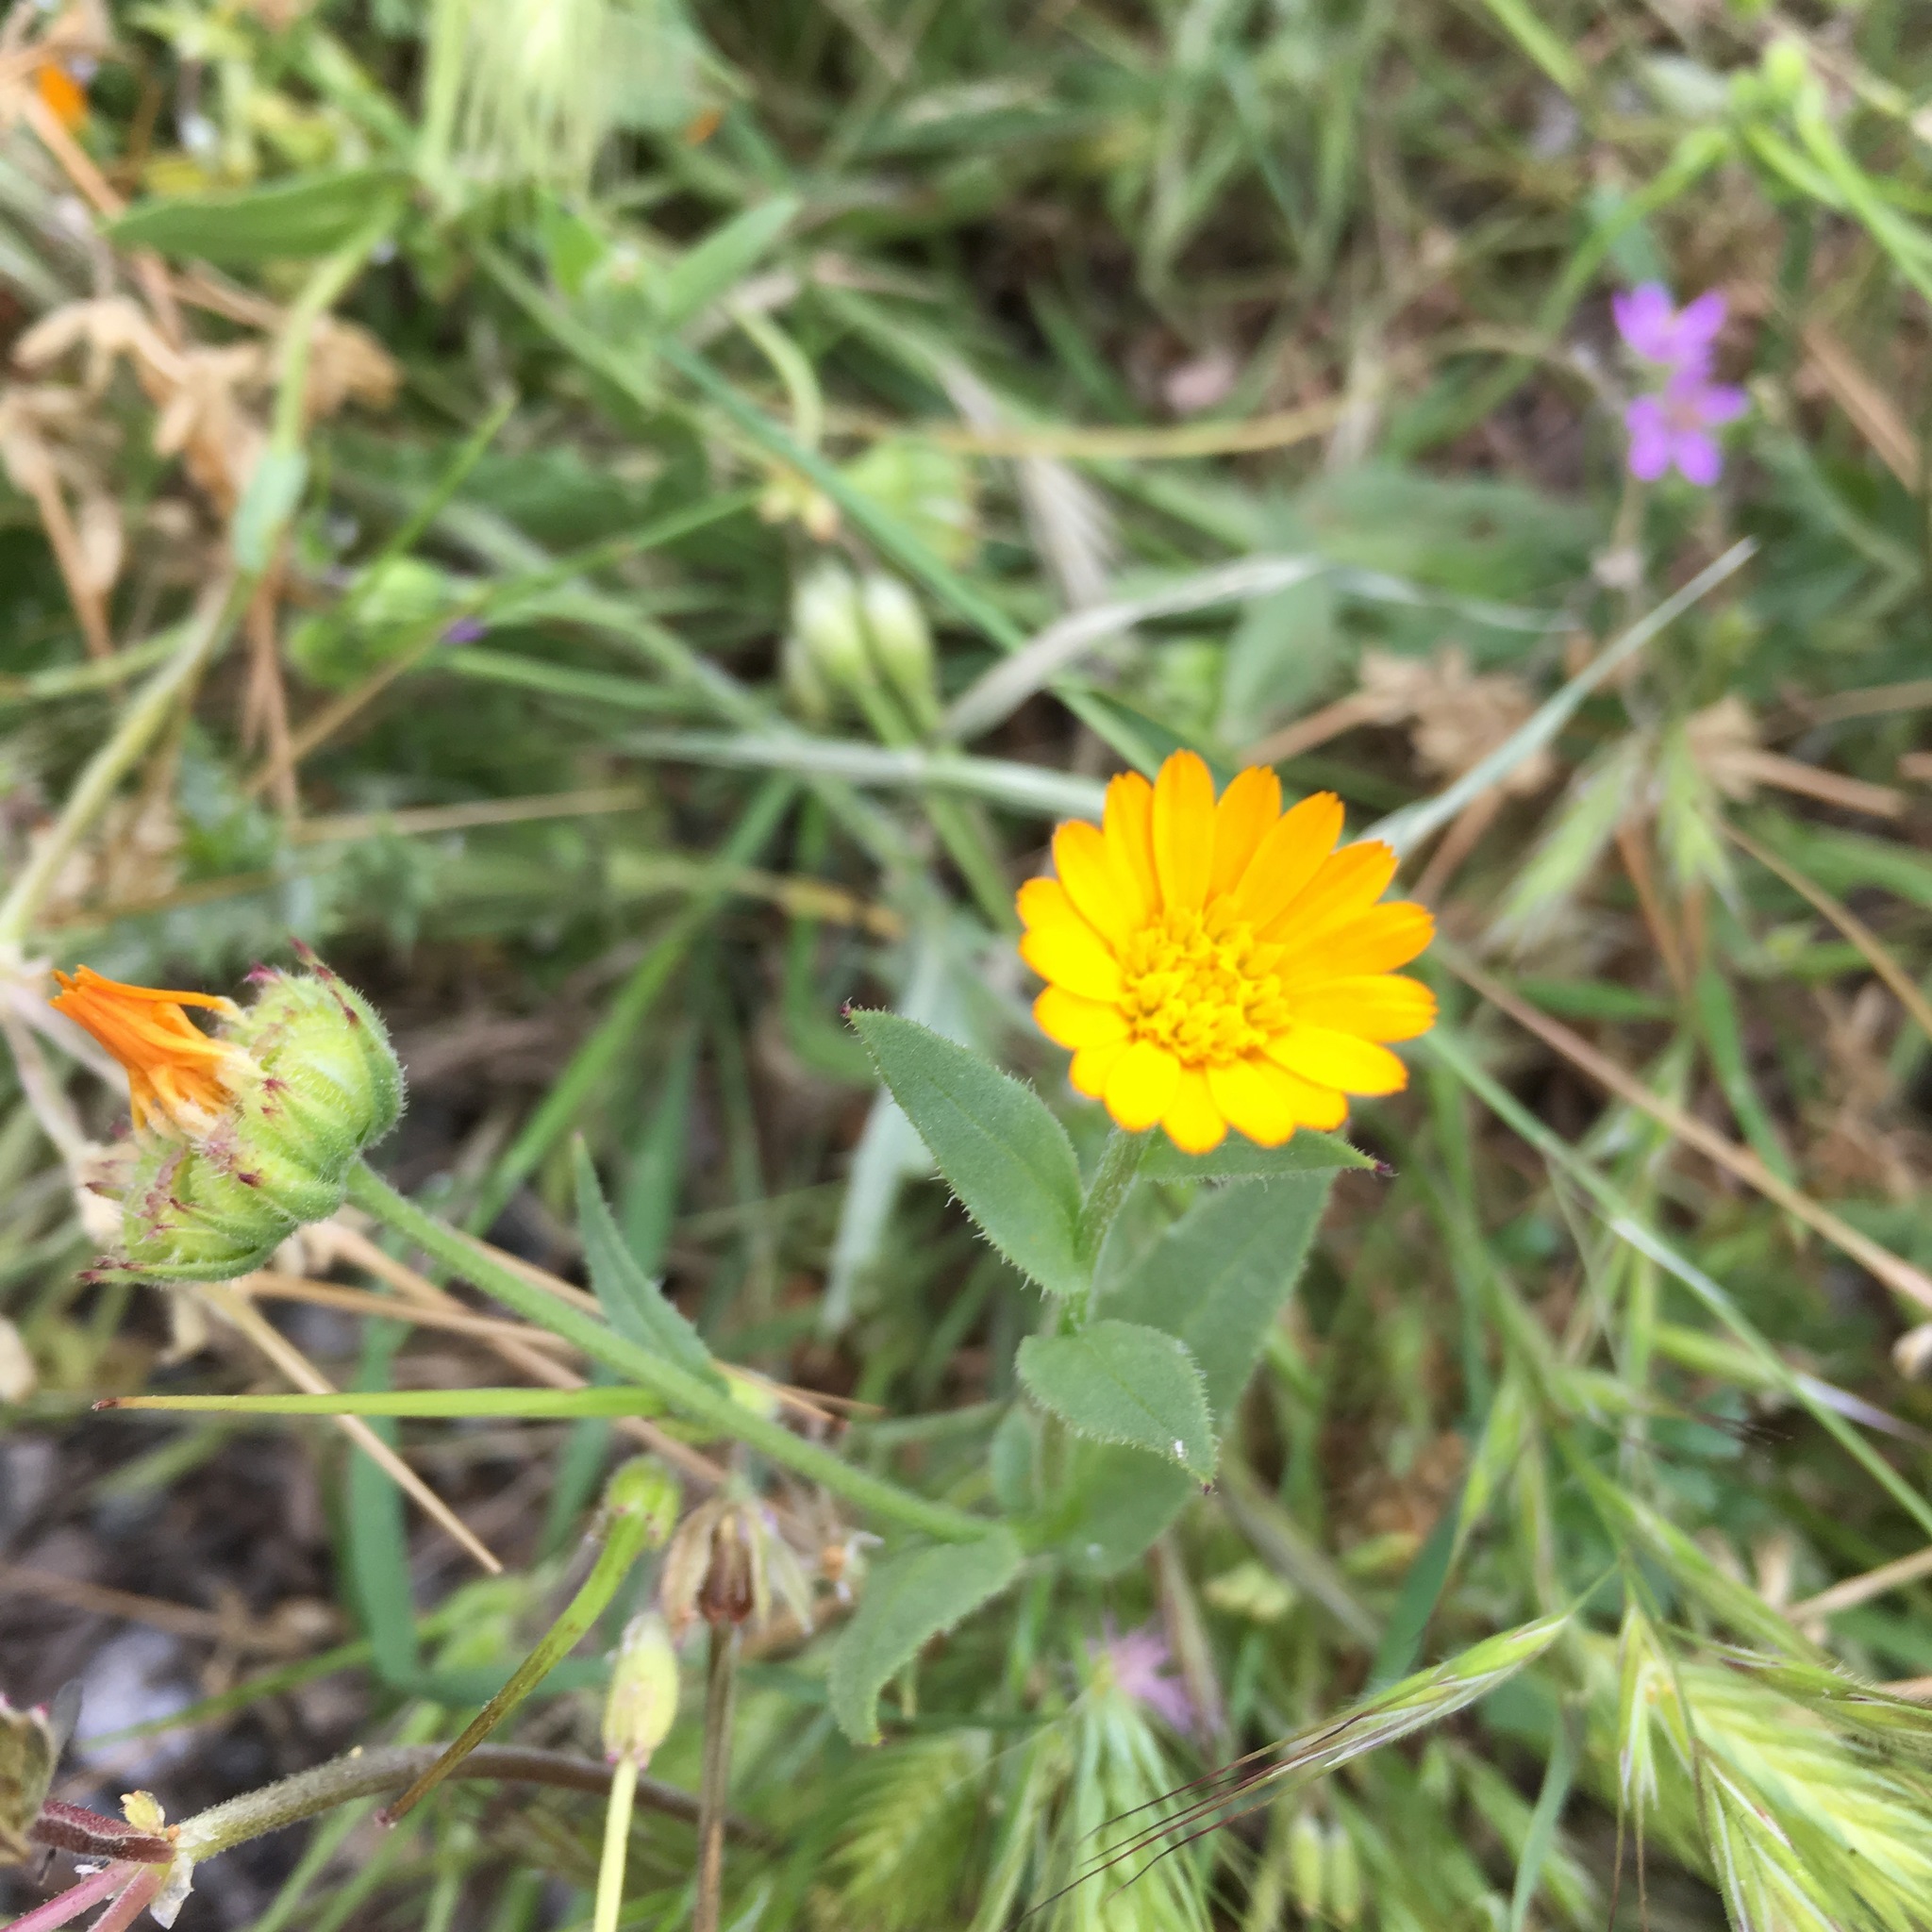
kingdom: Plantae
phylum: Tracheophyta
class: Magnoliopsida
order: Asterales
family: Asteraceae
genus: Calendula
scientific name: Calendula arvensis
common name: Field marigold
